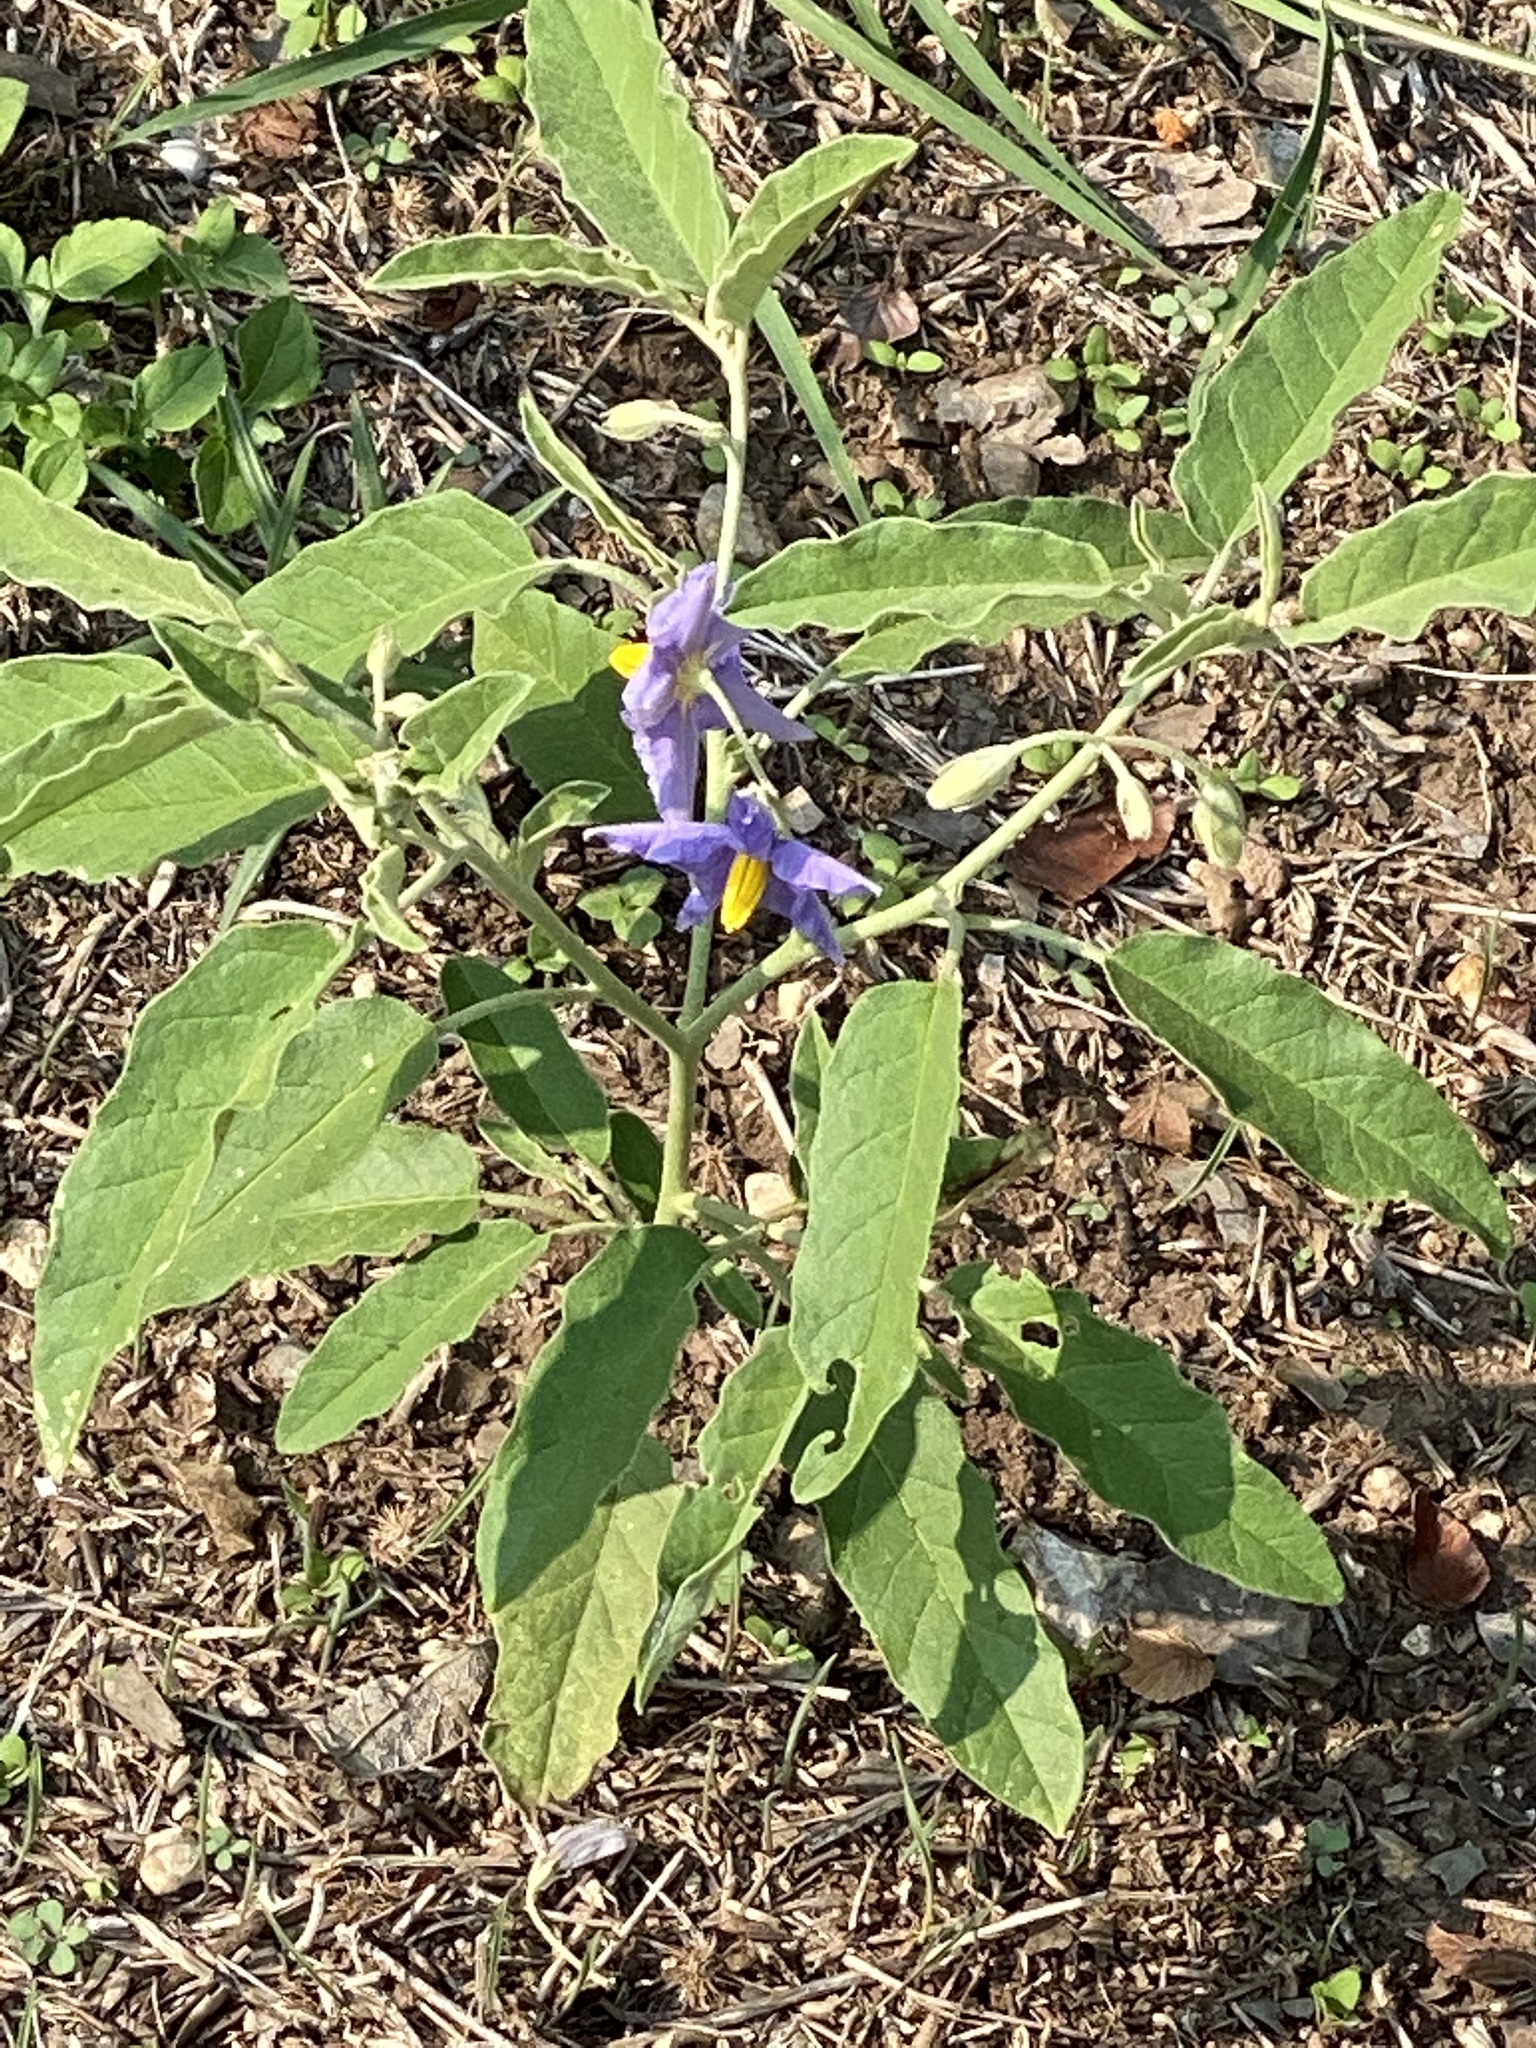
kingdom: Plantae
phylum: Tracheophyta
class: Magnoliopsida
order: Solanales
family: Solanaceae
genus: Solanum
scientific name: Solanum elaeagnifolium
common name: Silverleaf nightshade
